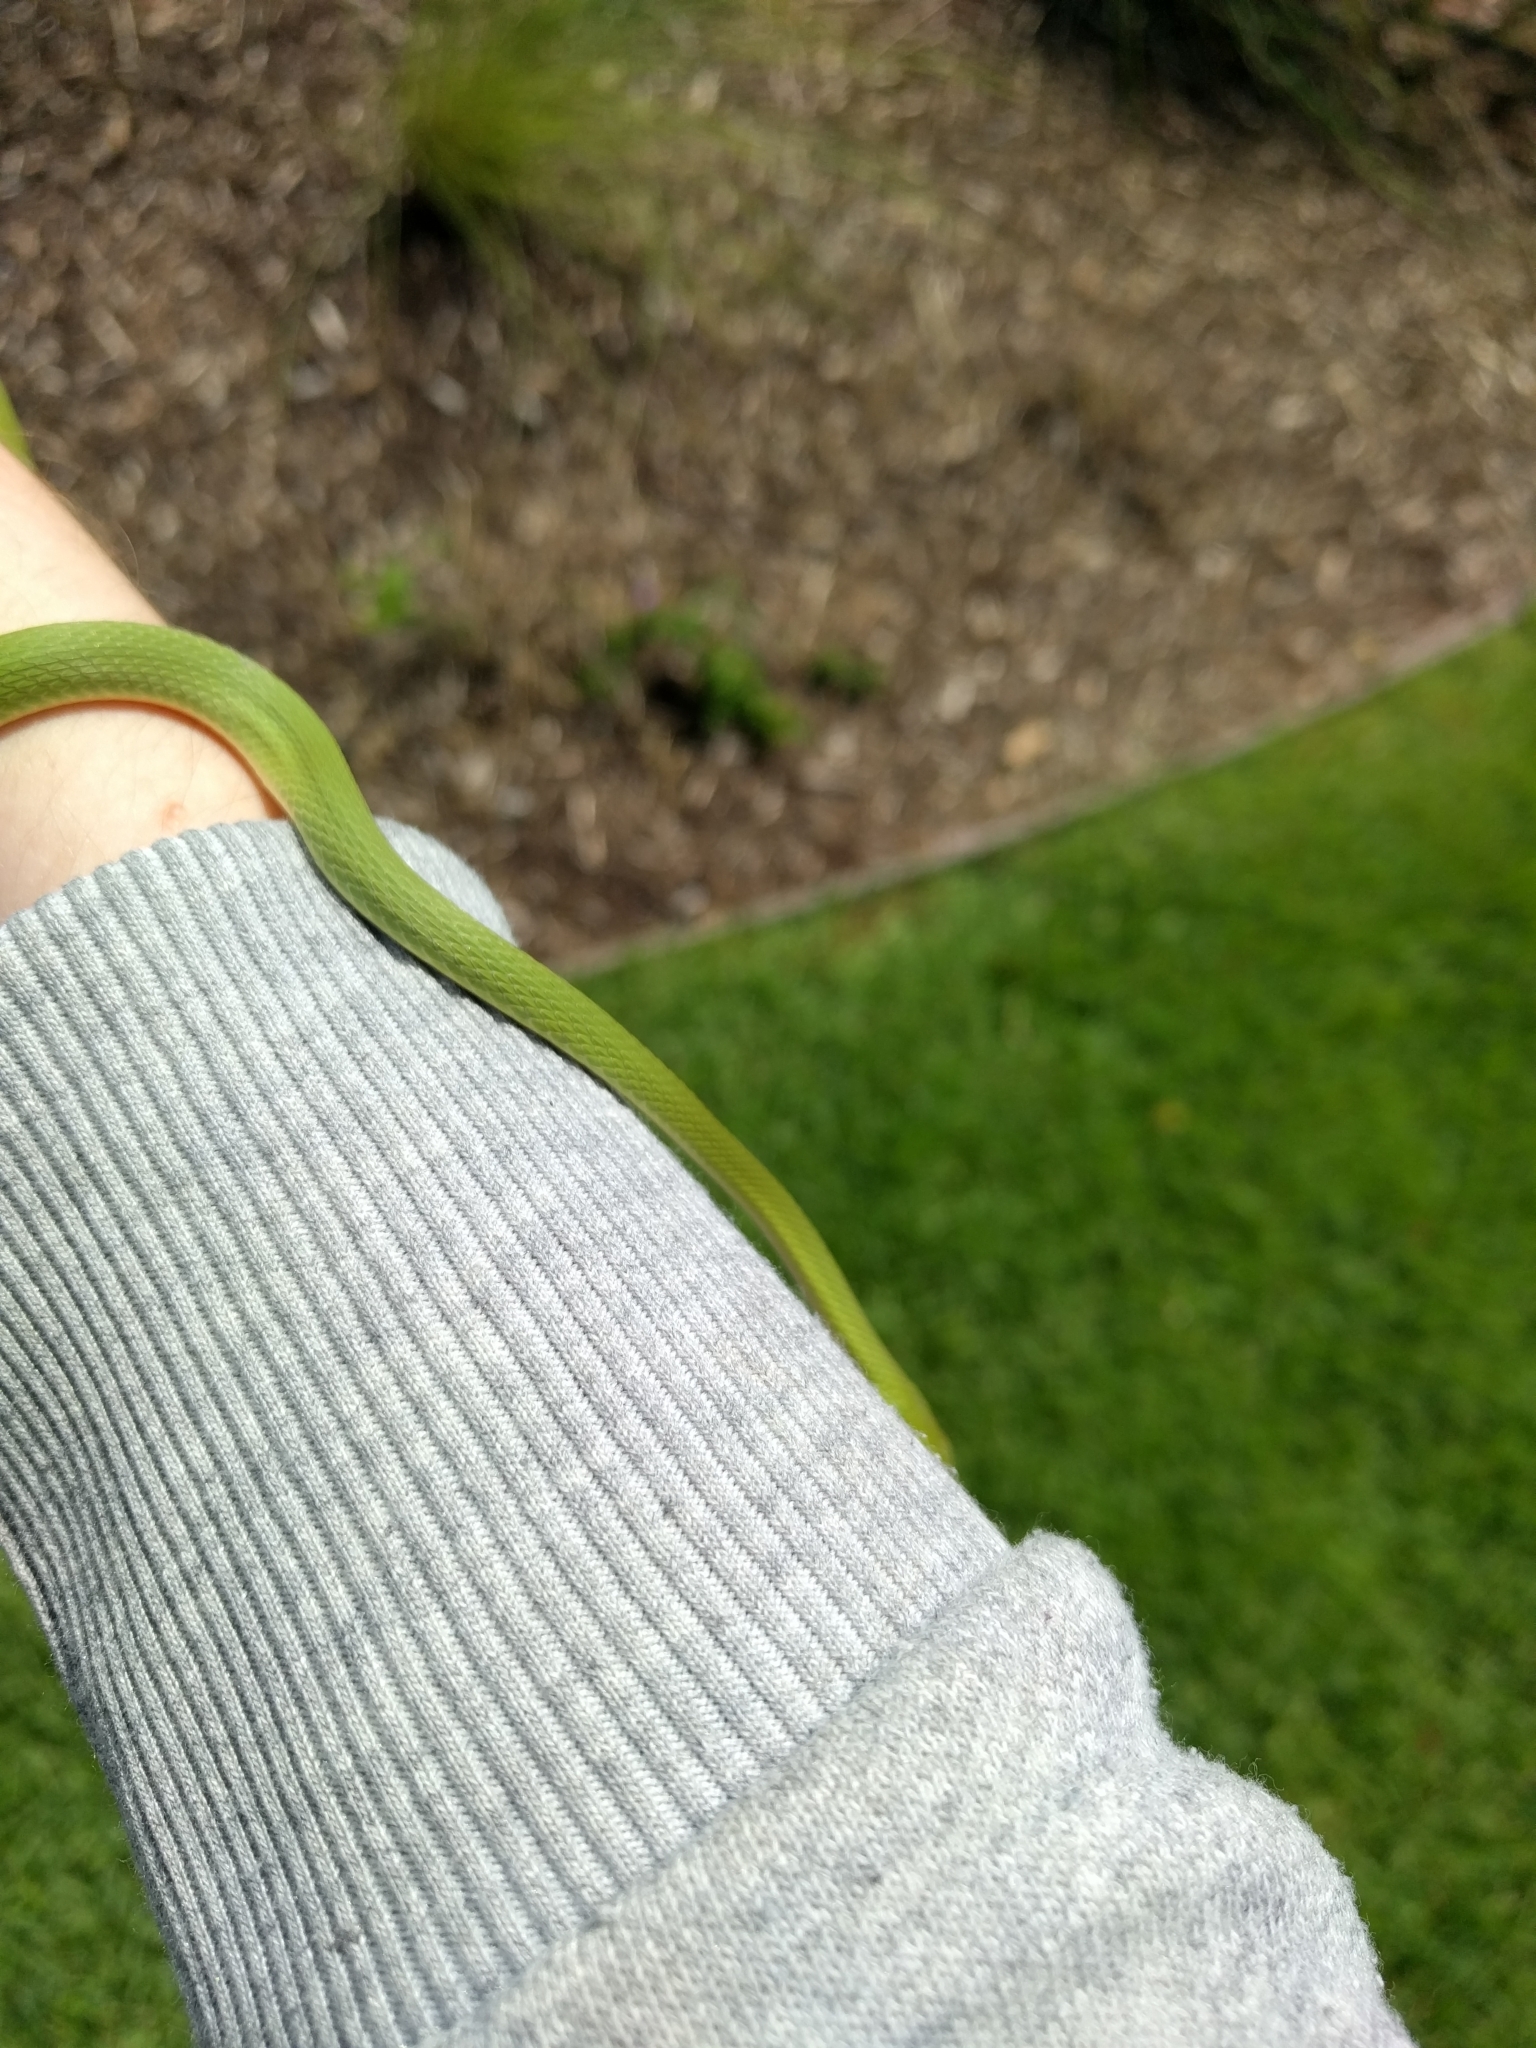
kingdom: Animalia
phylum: Chordata
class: Squamata
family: Colubridae
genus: Opheodrys
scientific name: Opheodrys aestivus
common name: Rough greensnake
